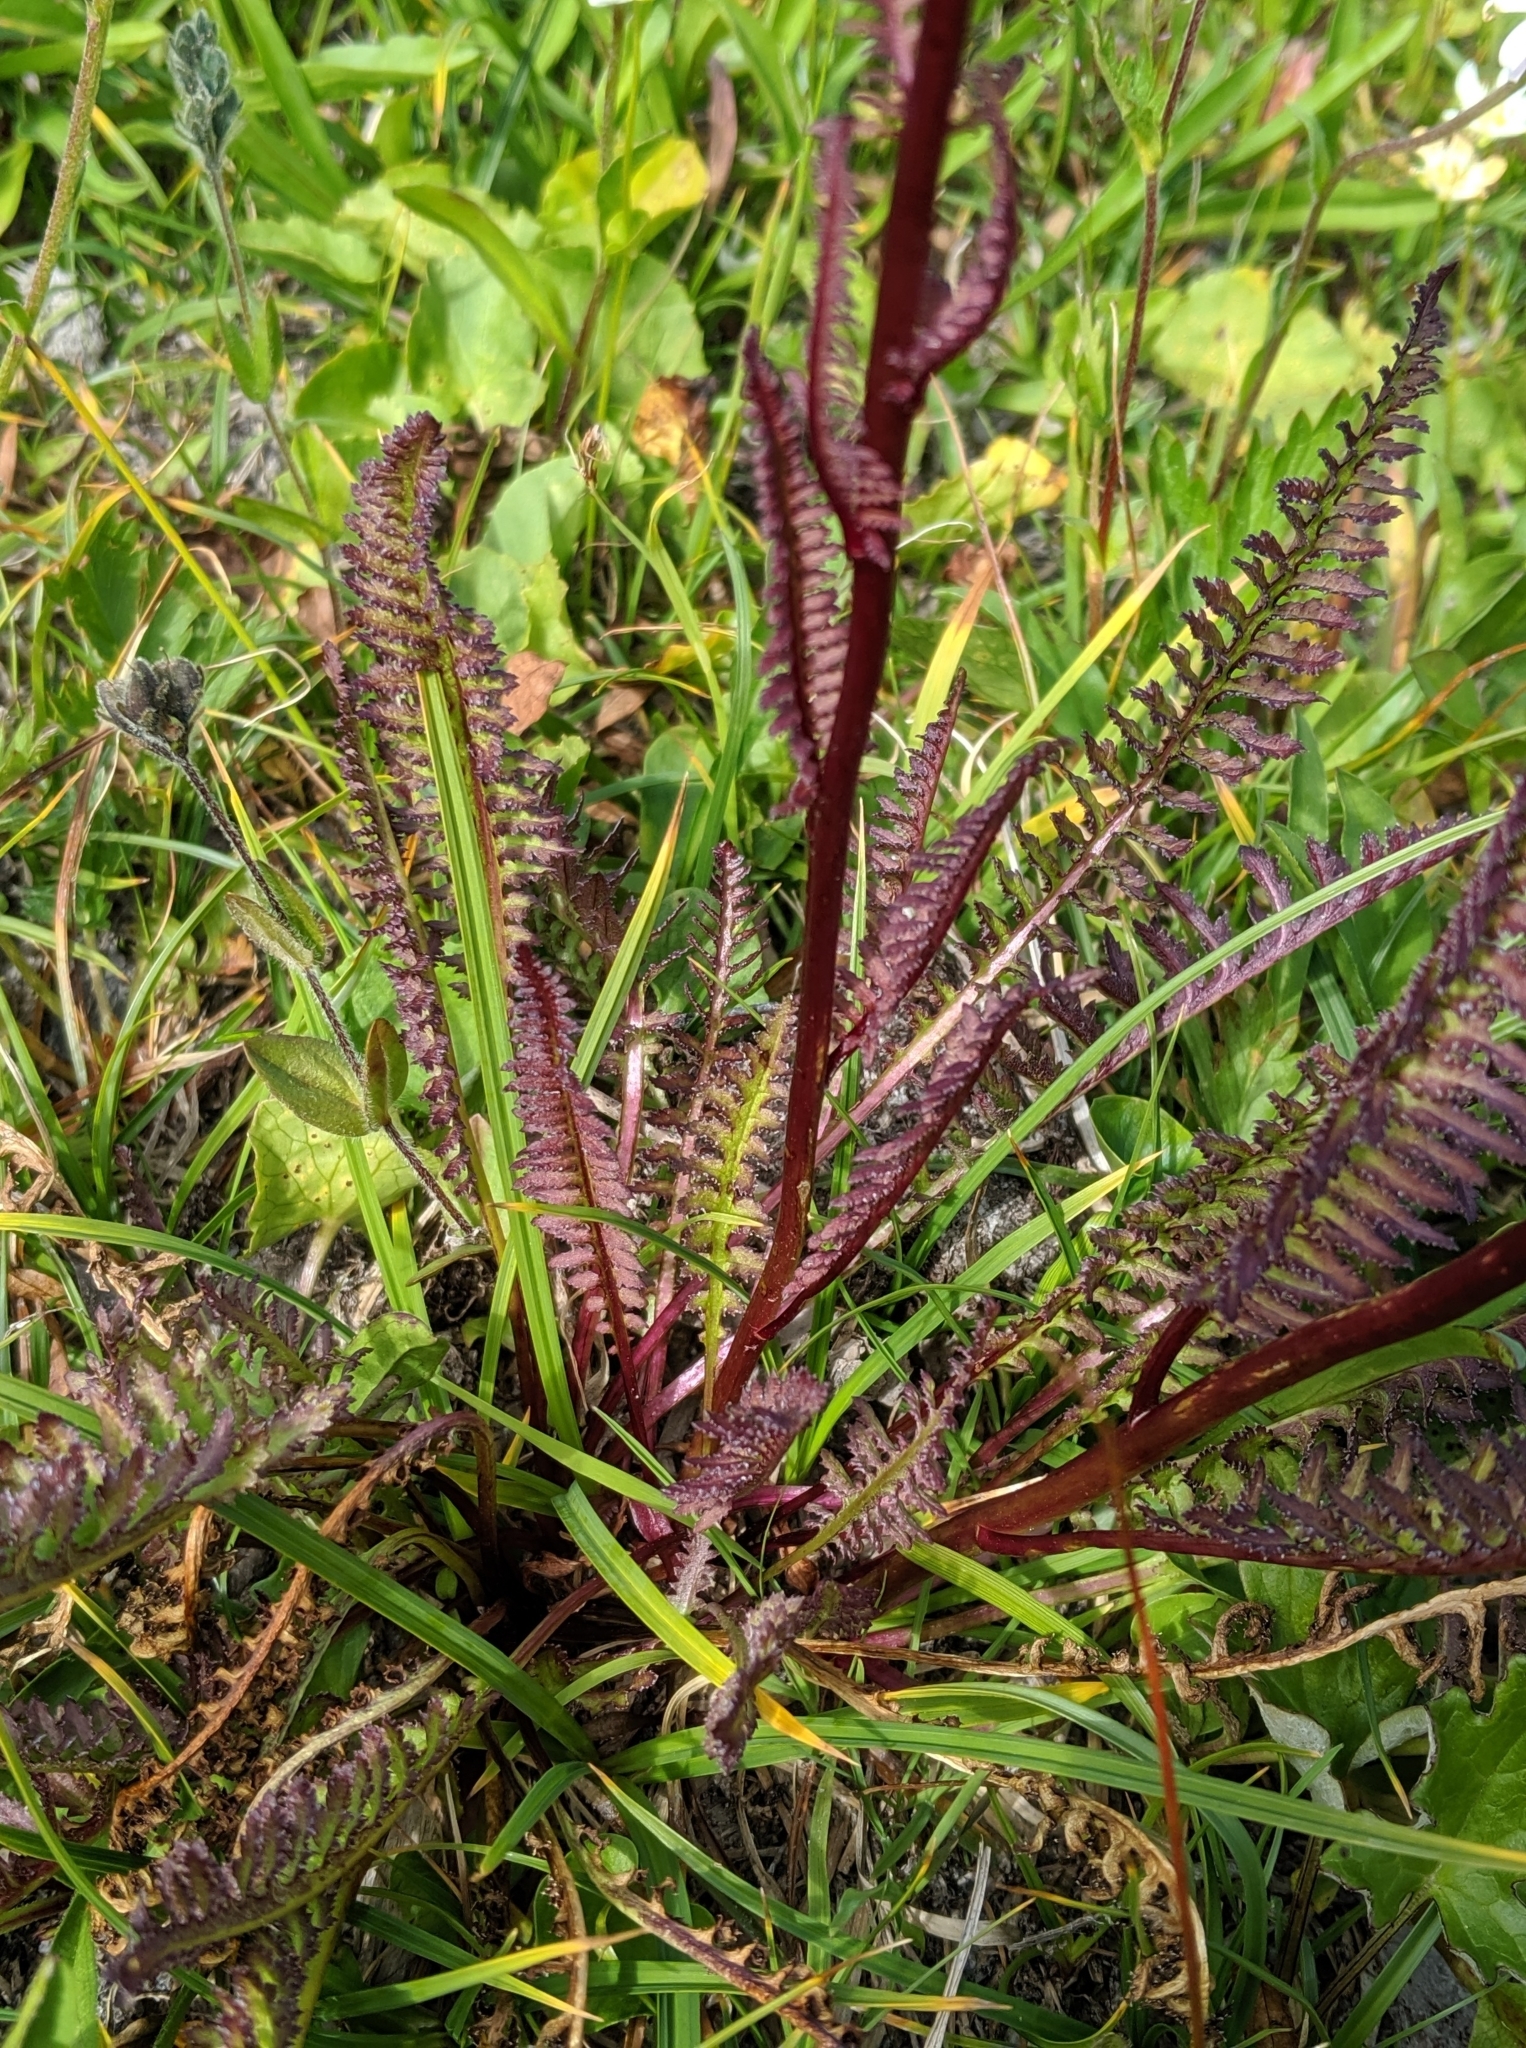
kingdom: Plantae
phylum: Tracheophyta
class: Magnoliopsida
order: Lamiales
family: Orobanchaceae
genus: Pedicularis
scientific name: Pedicularis groenlandica
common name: Elephant's-head
